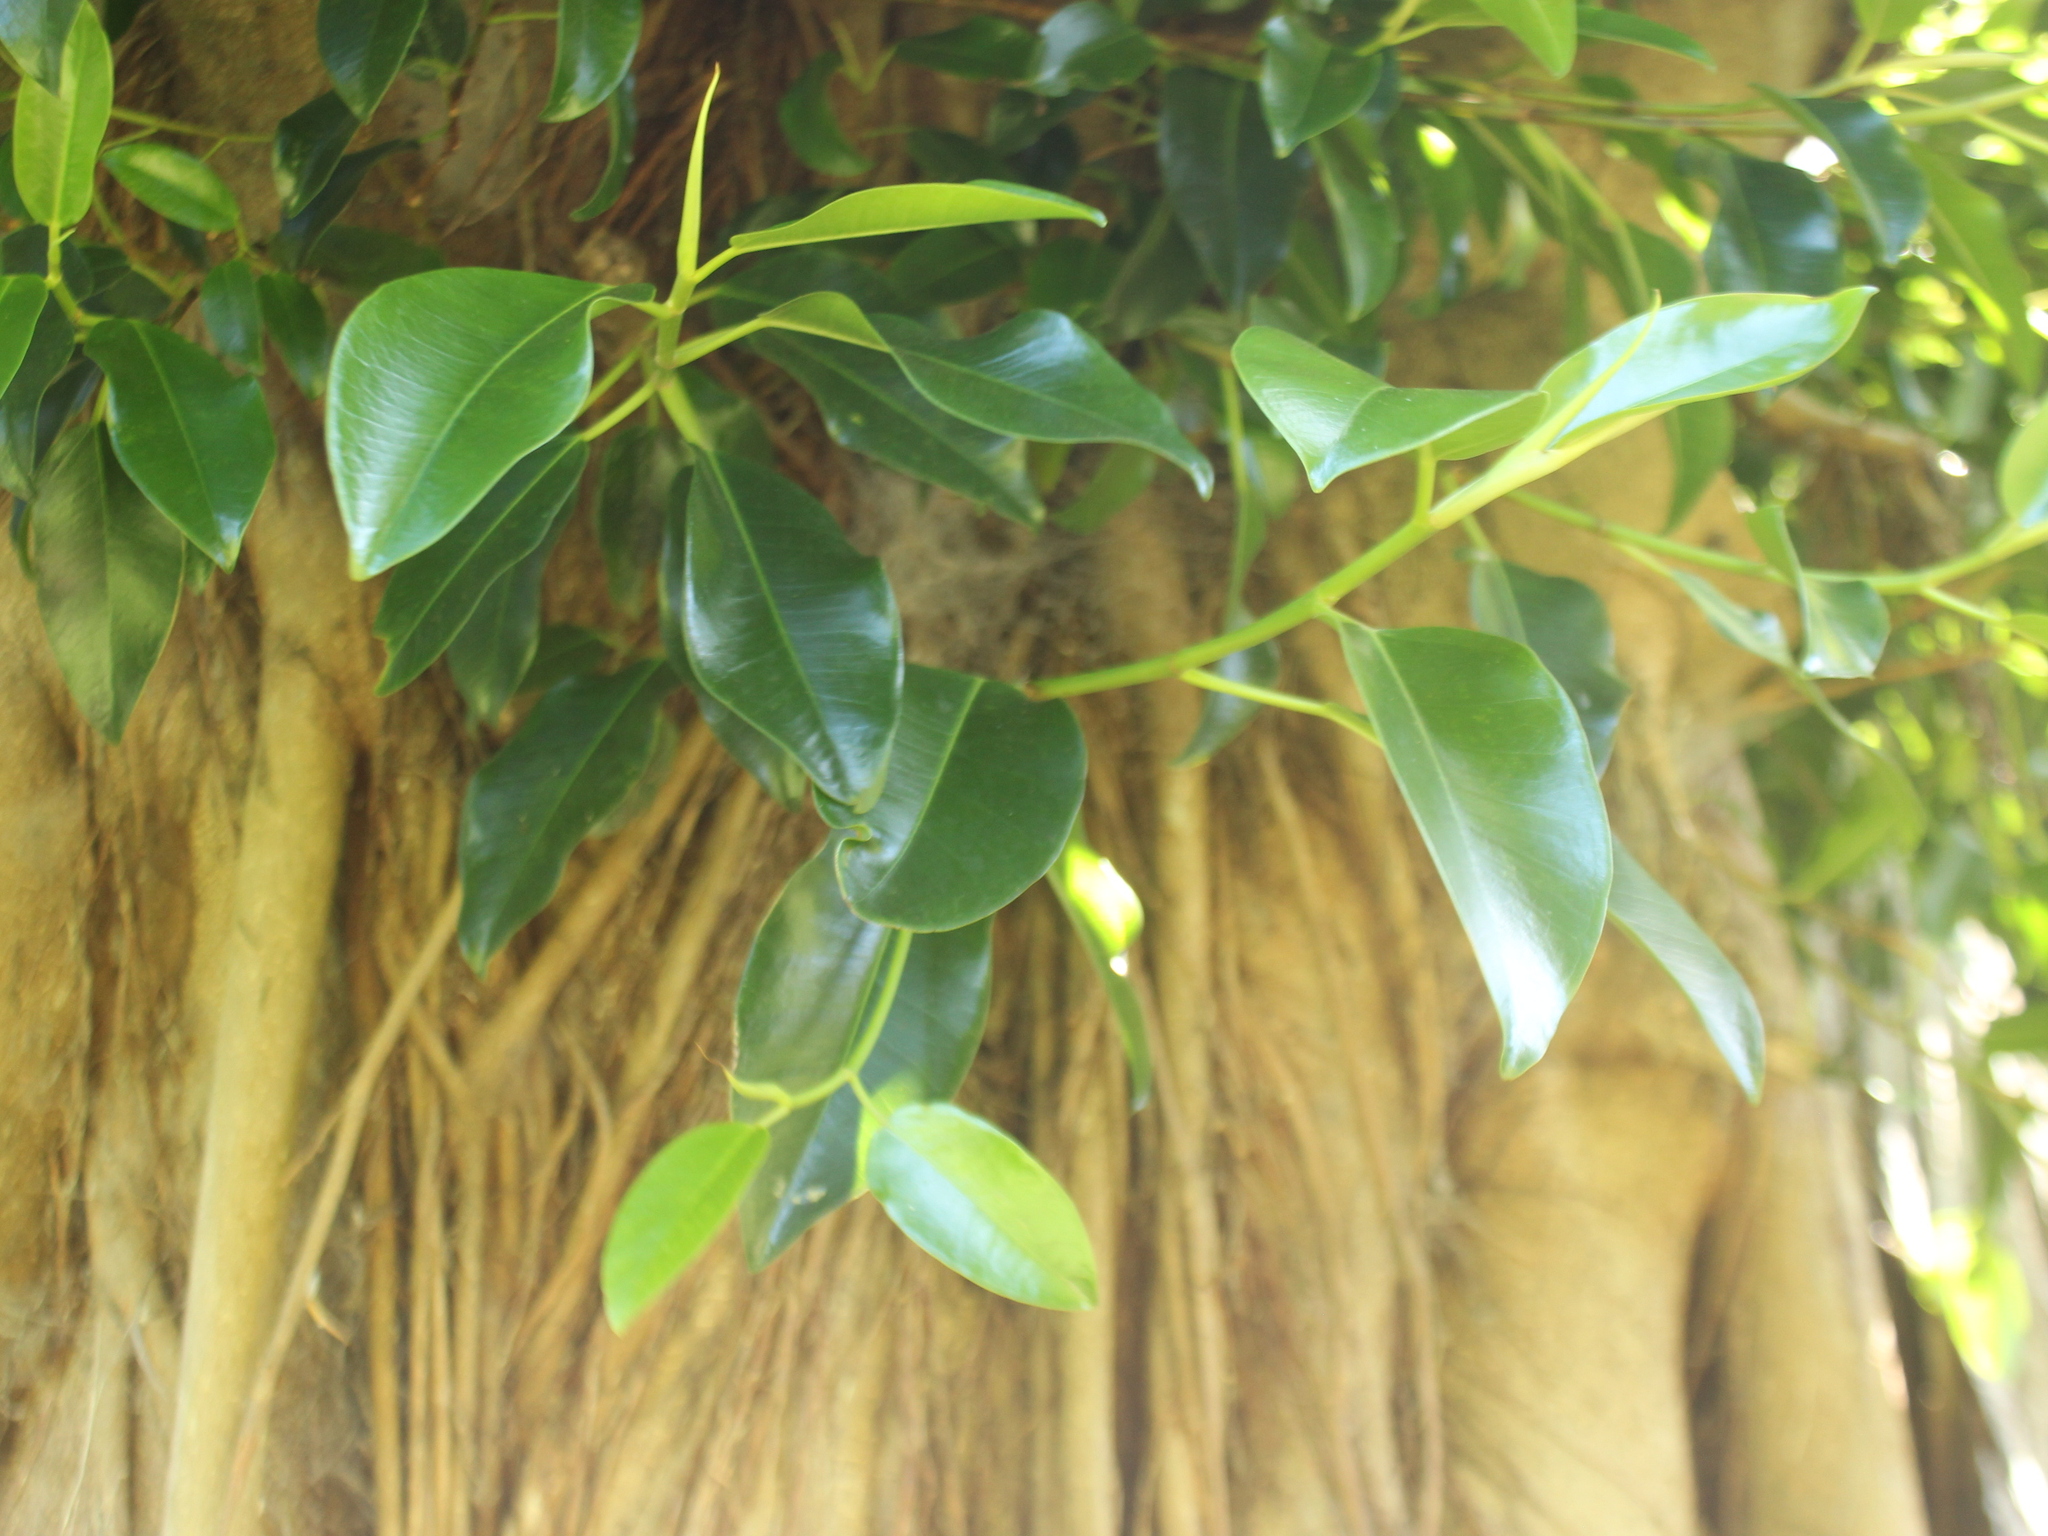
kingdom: Plantae
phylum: Tracheophyta
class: Magnoliopsida
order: Rosales
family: Moraceae
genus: Ficus
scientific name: Ficus macrophylla
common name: Moreton bay fig
